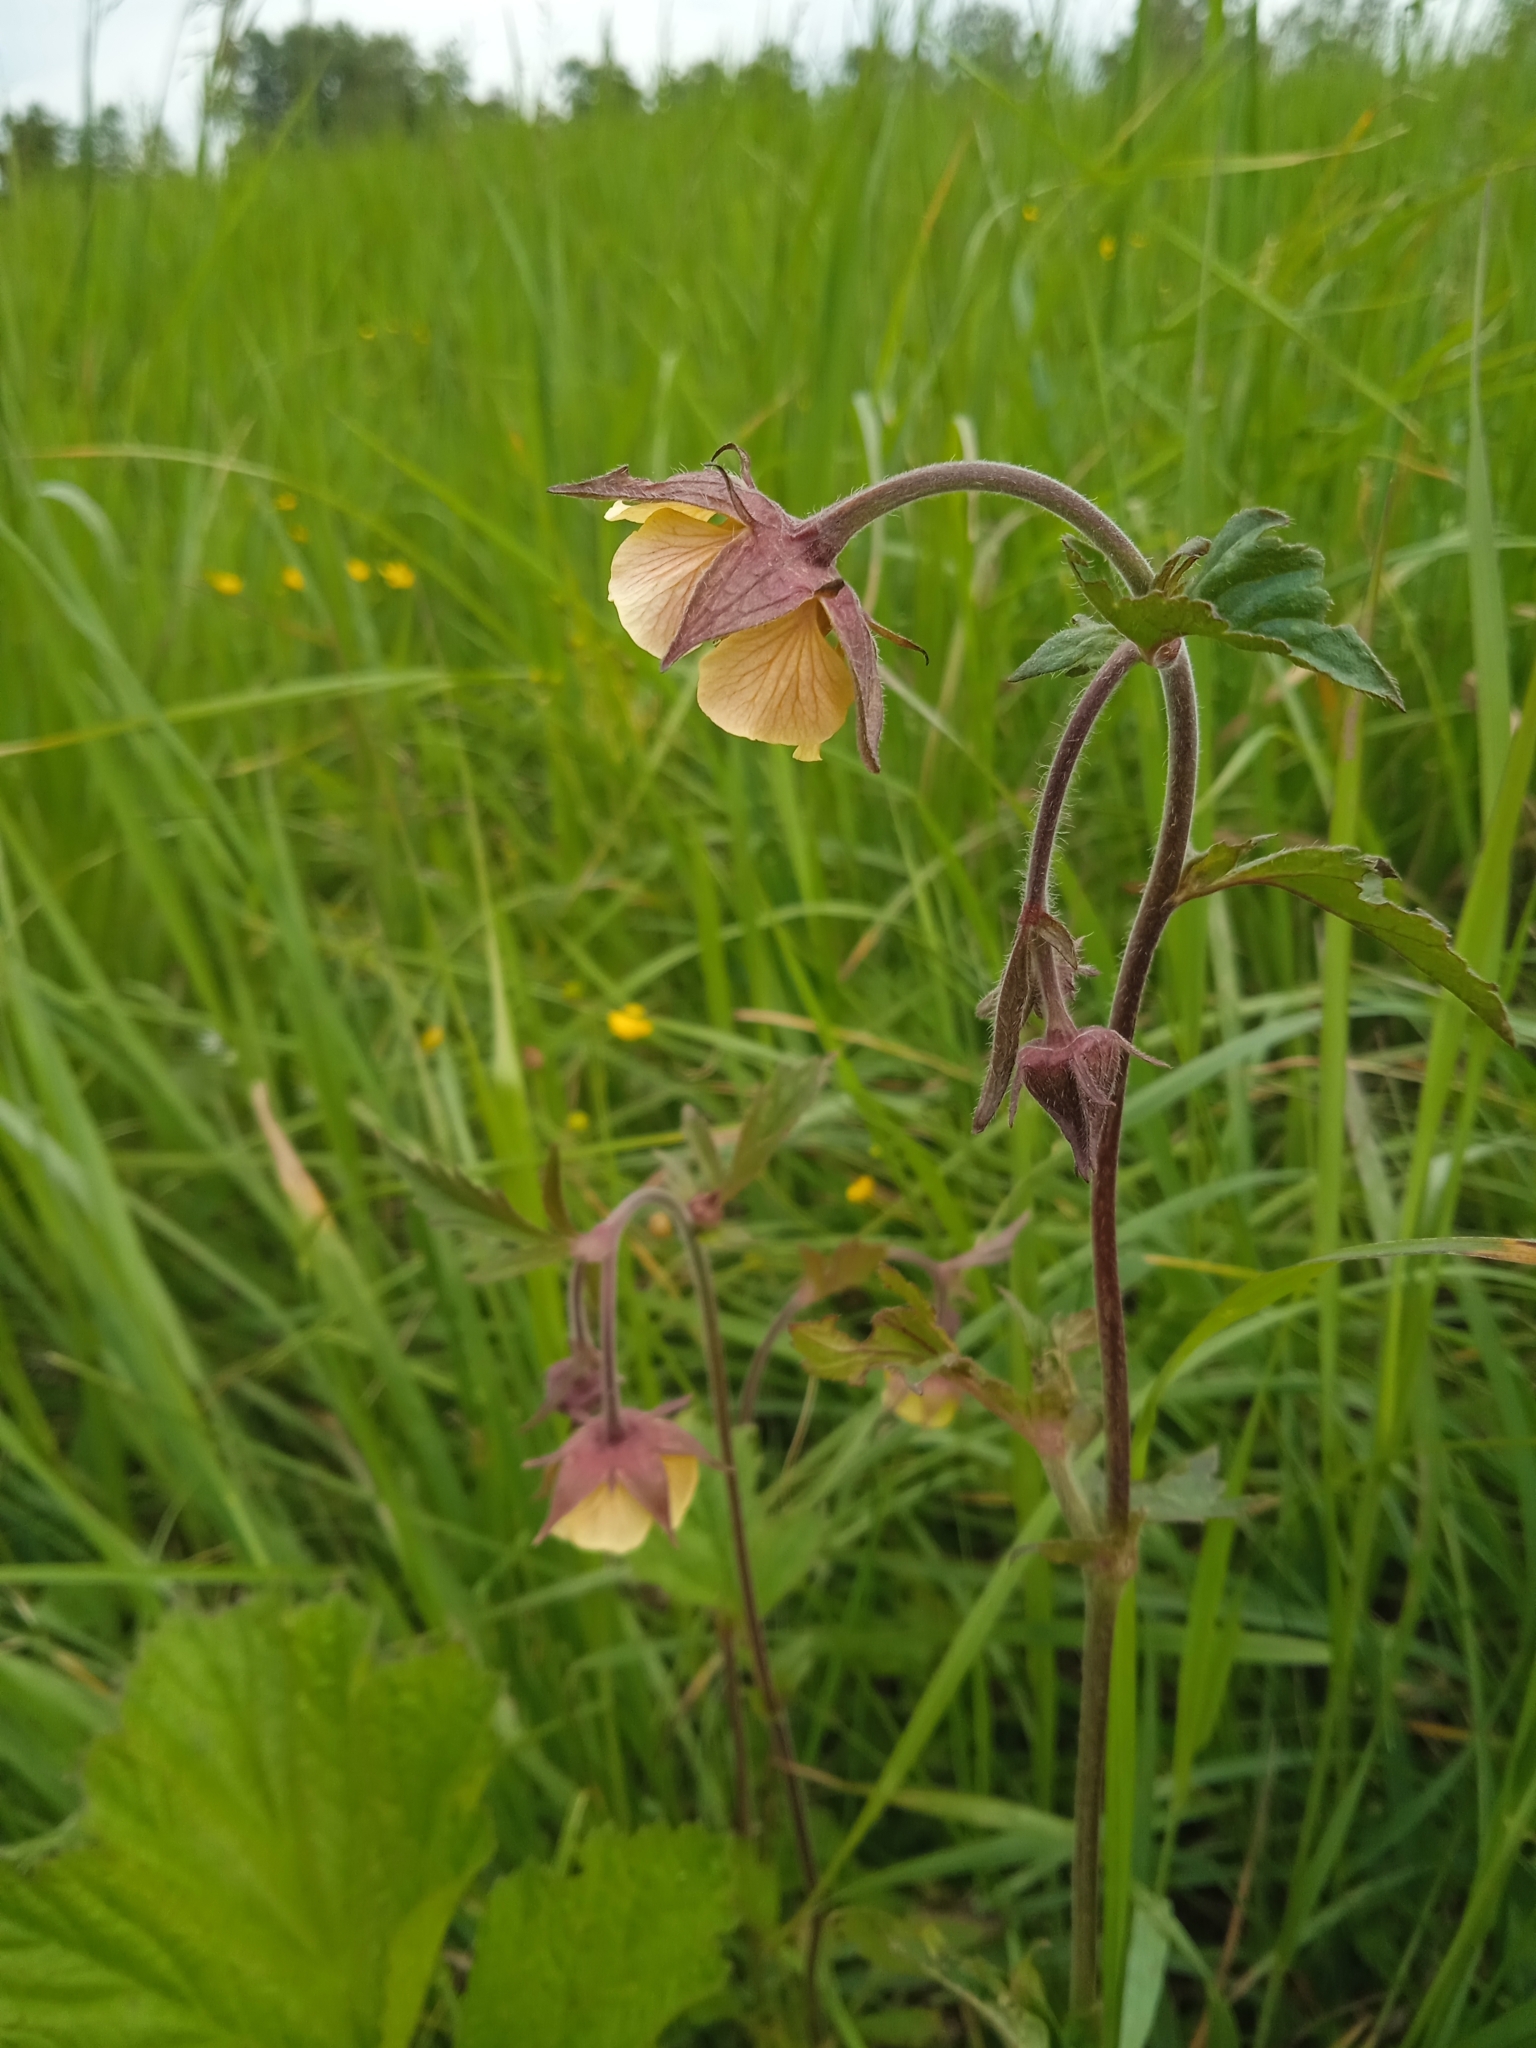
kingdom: Plantae
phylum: Tracheophyta
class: Magnoliopsida
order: Rosales
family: Rosaceae
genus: Geum
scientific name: Geum aurantiacum
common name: Orange avens
